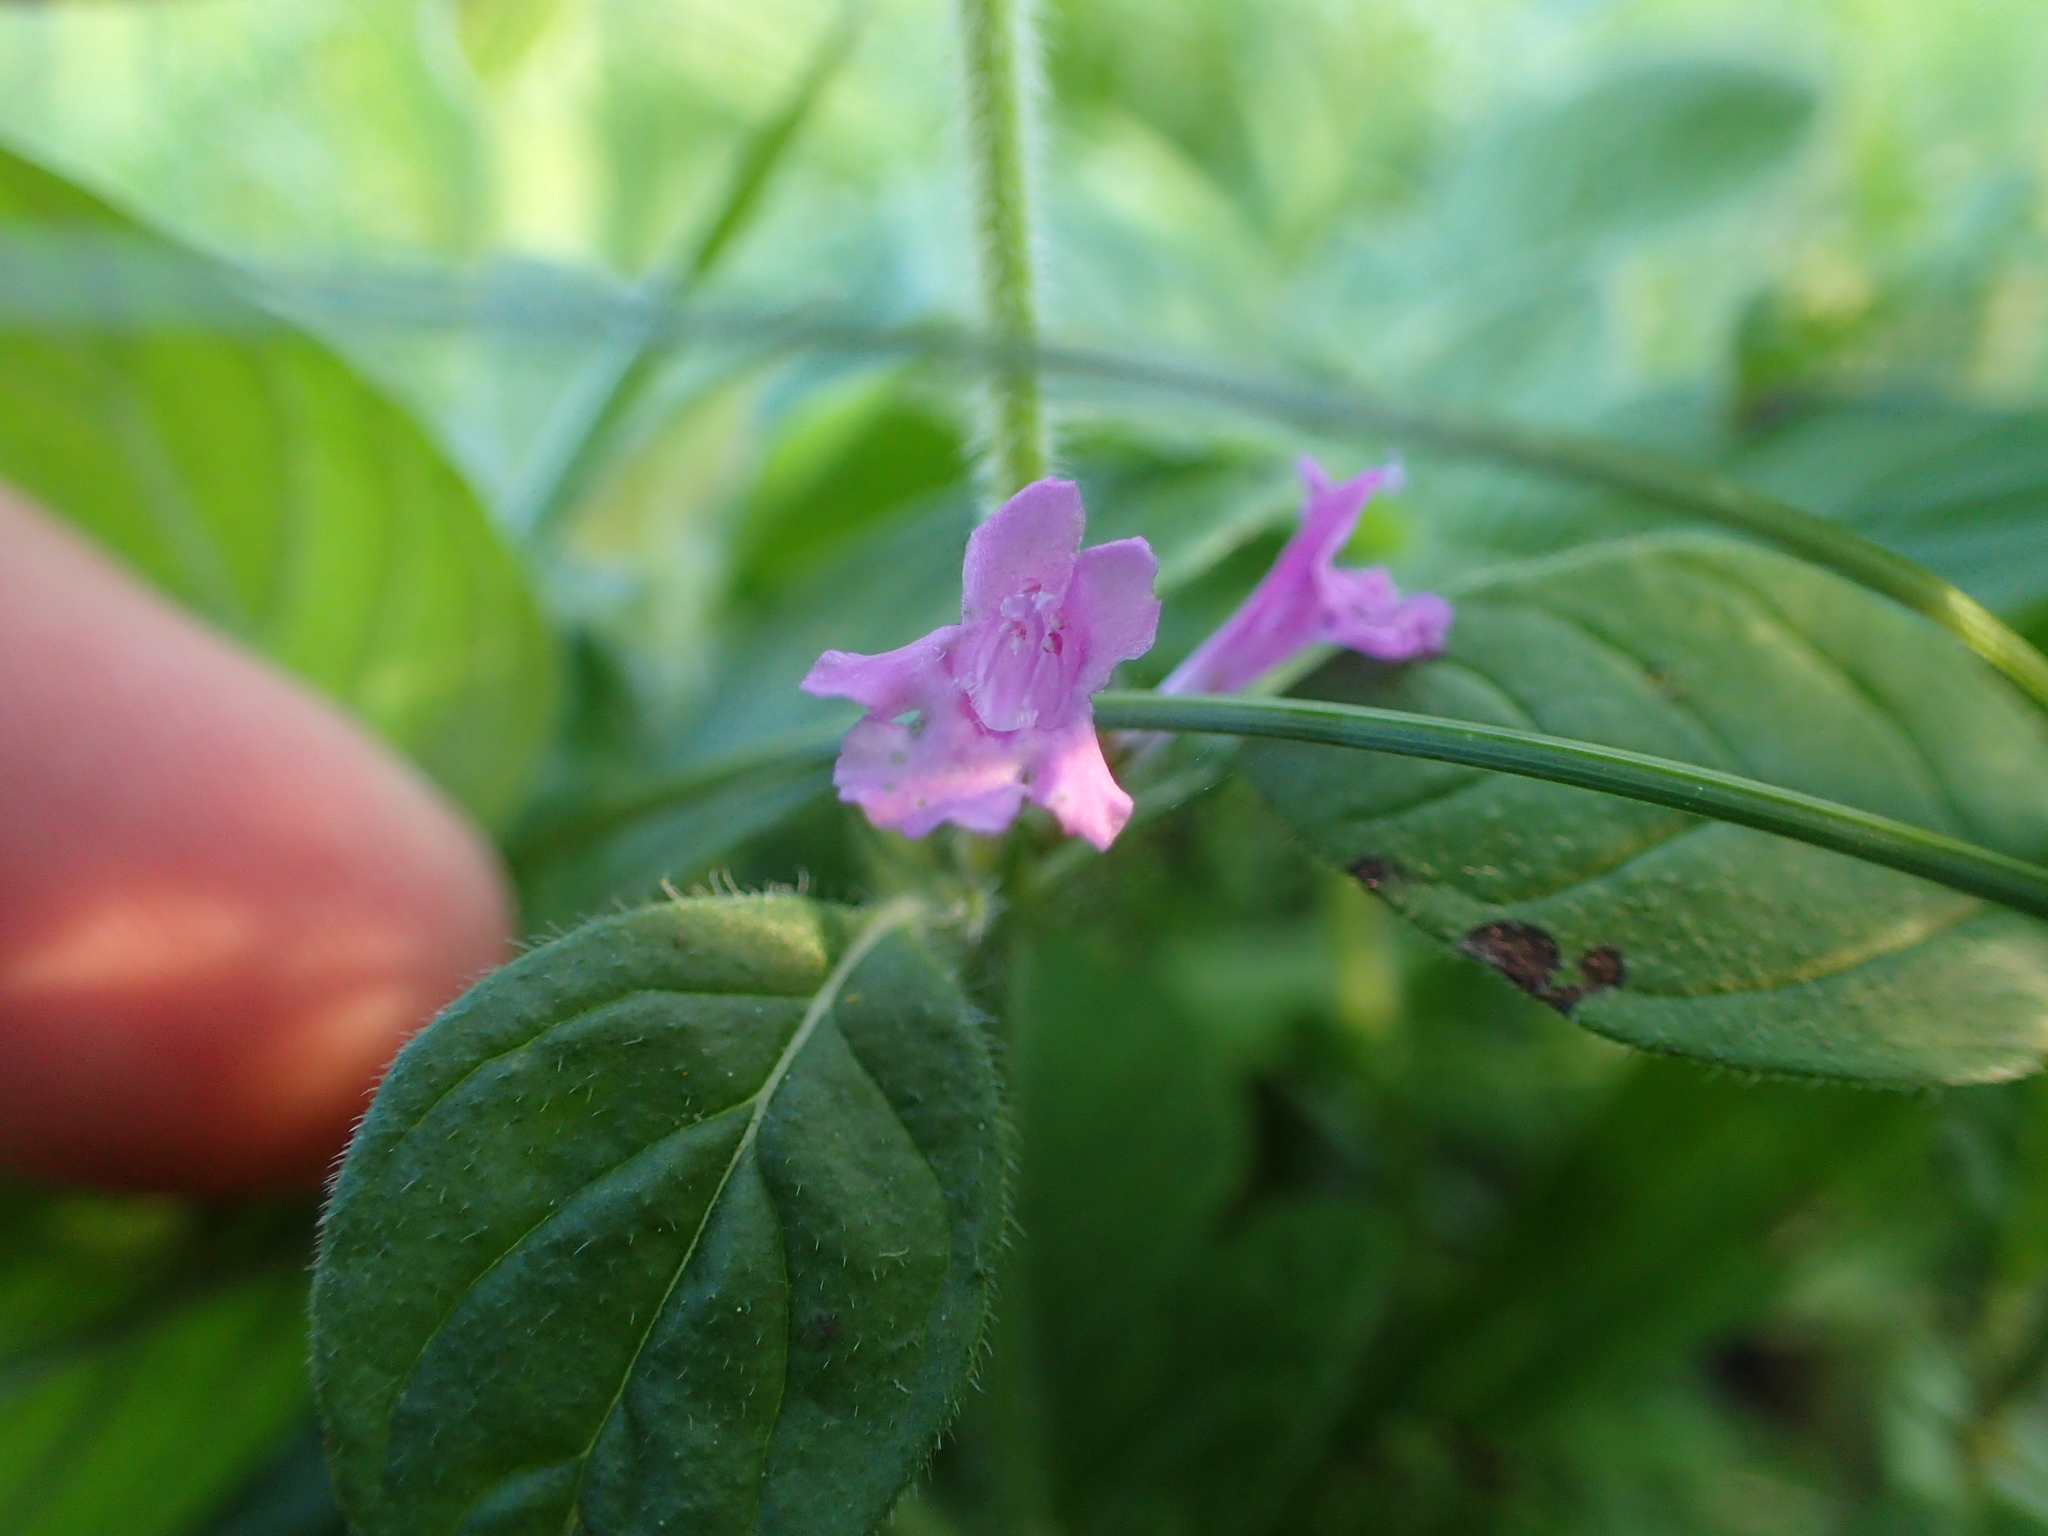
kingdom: Plantae
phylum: Tracheophyta
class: Magnoliopsida
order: Lamiales
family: Lamiaceae
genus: Clinopodium
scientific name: Clinopodium vulgare
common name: Wild basil
